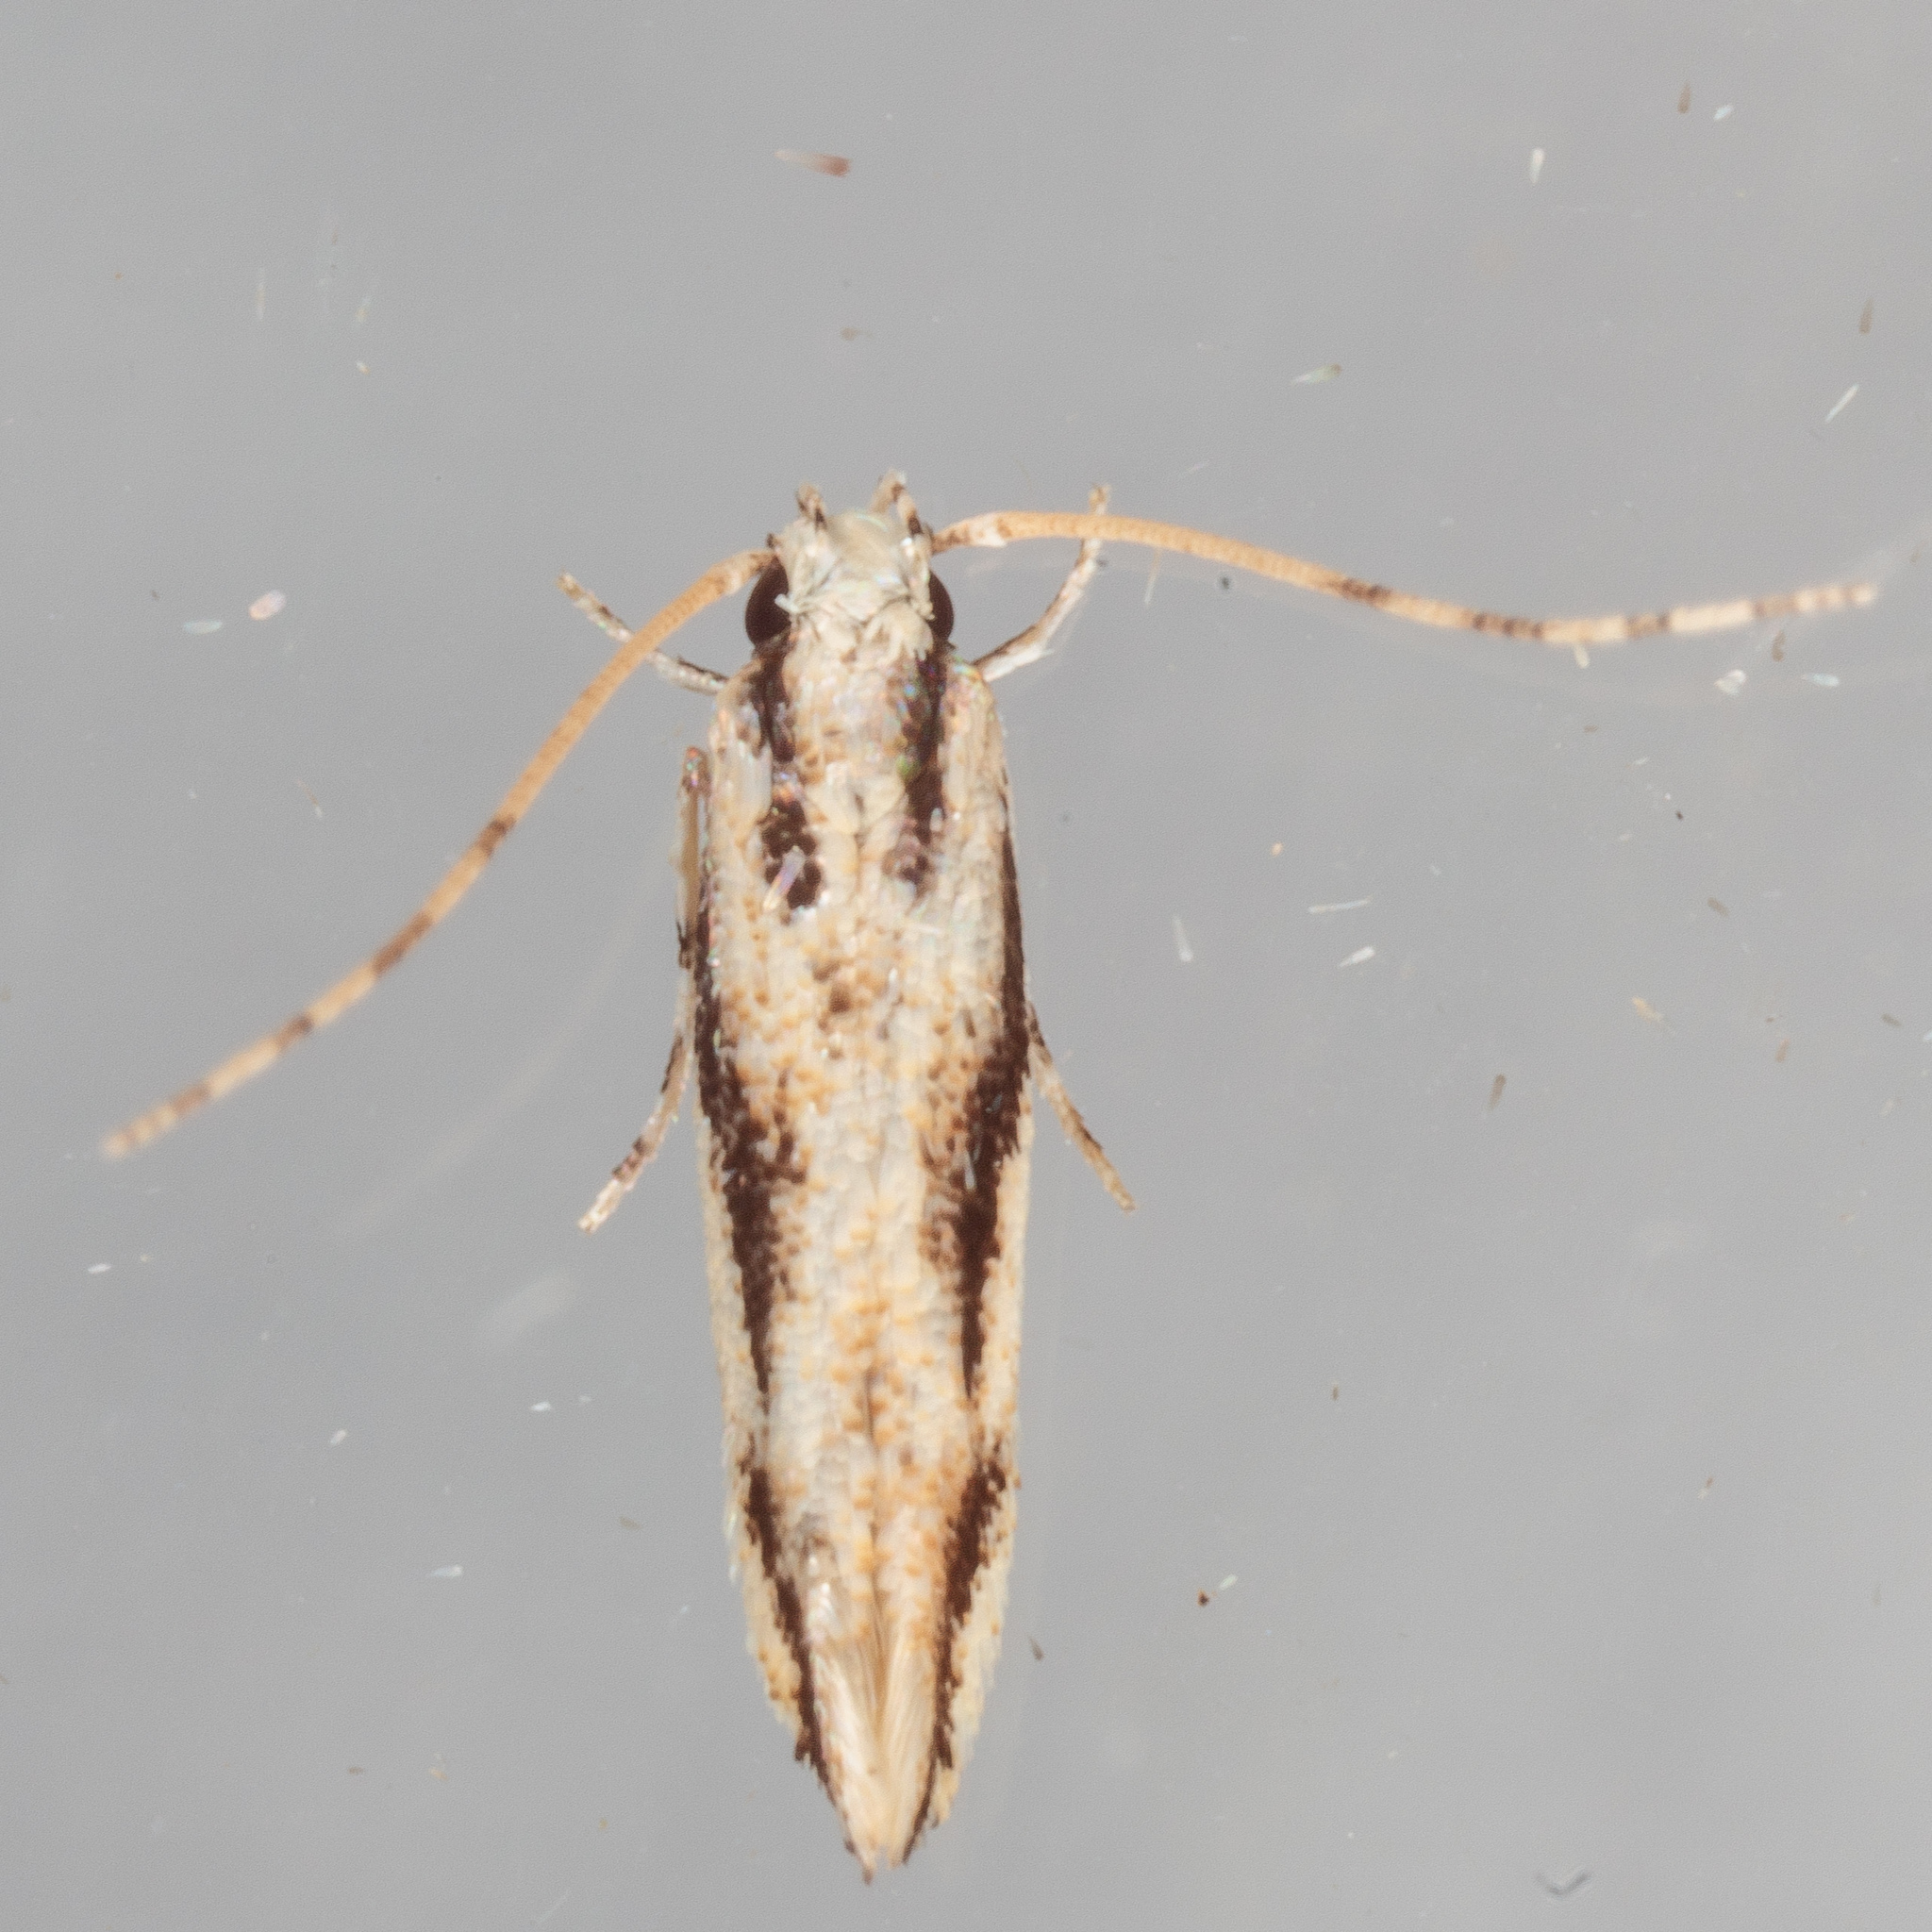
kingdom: Animalia
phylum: Arthropoda
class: Insecta
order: Lepidoptera
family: Cosmopterigidae
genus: Melanocinclis
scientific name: Melanocinclis lineigera
